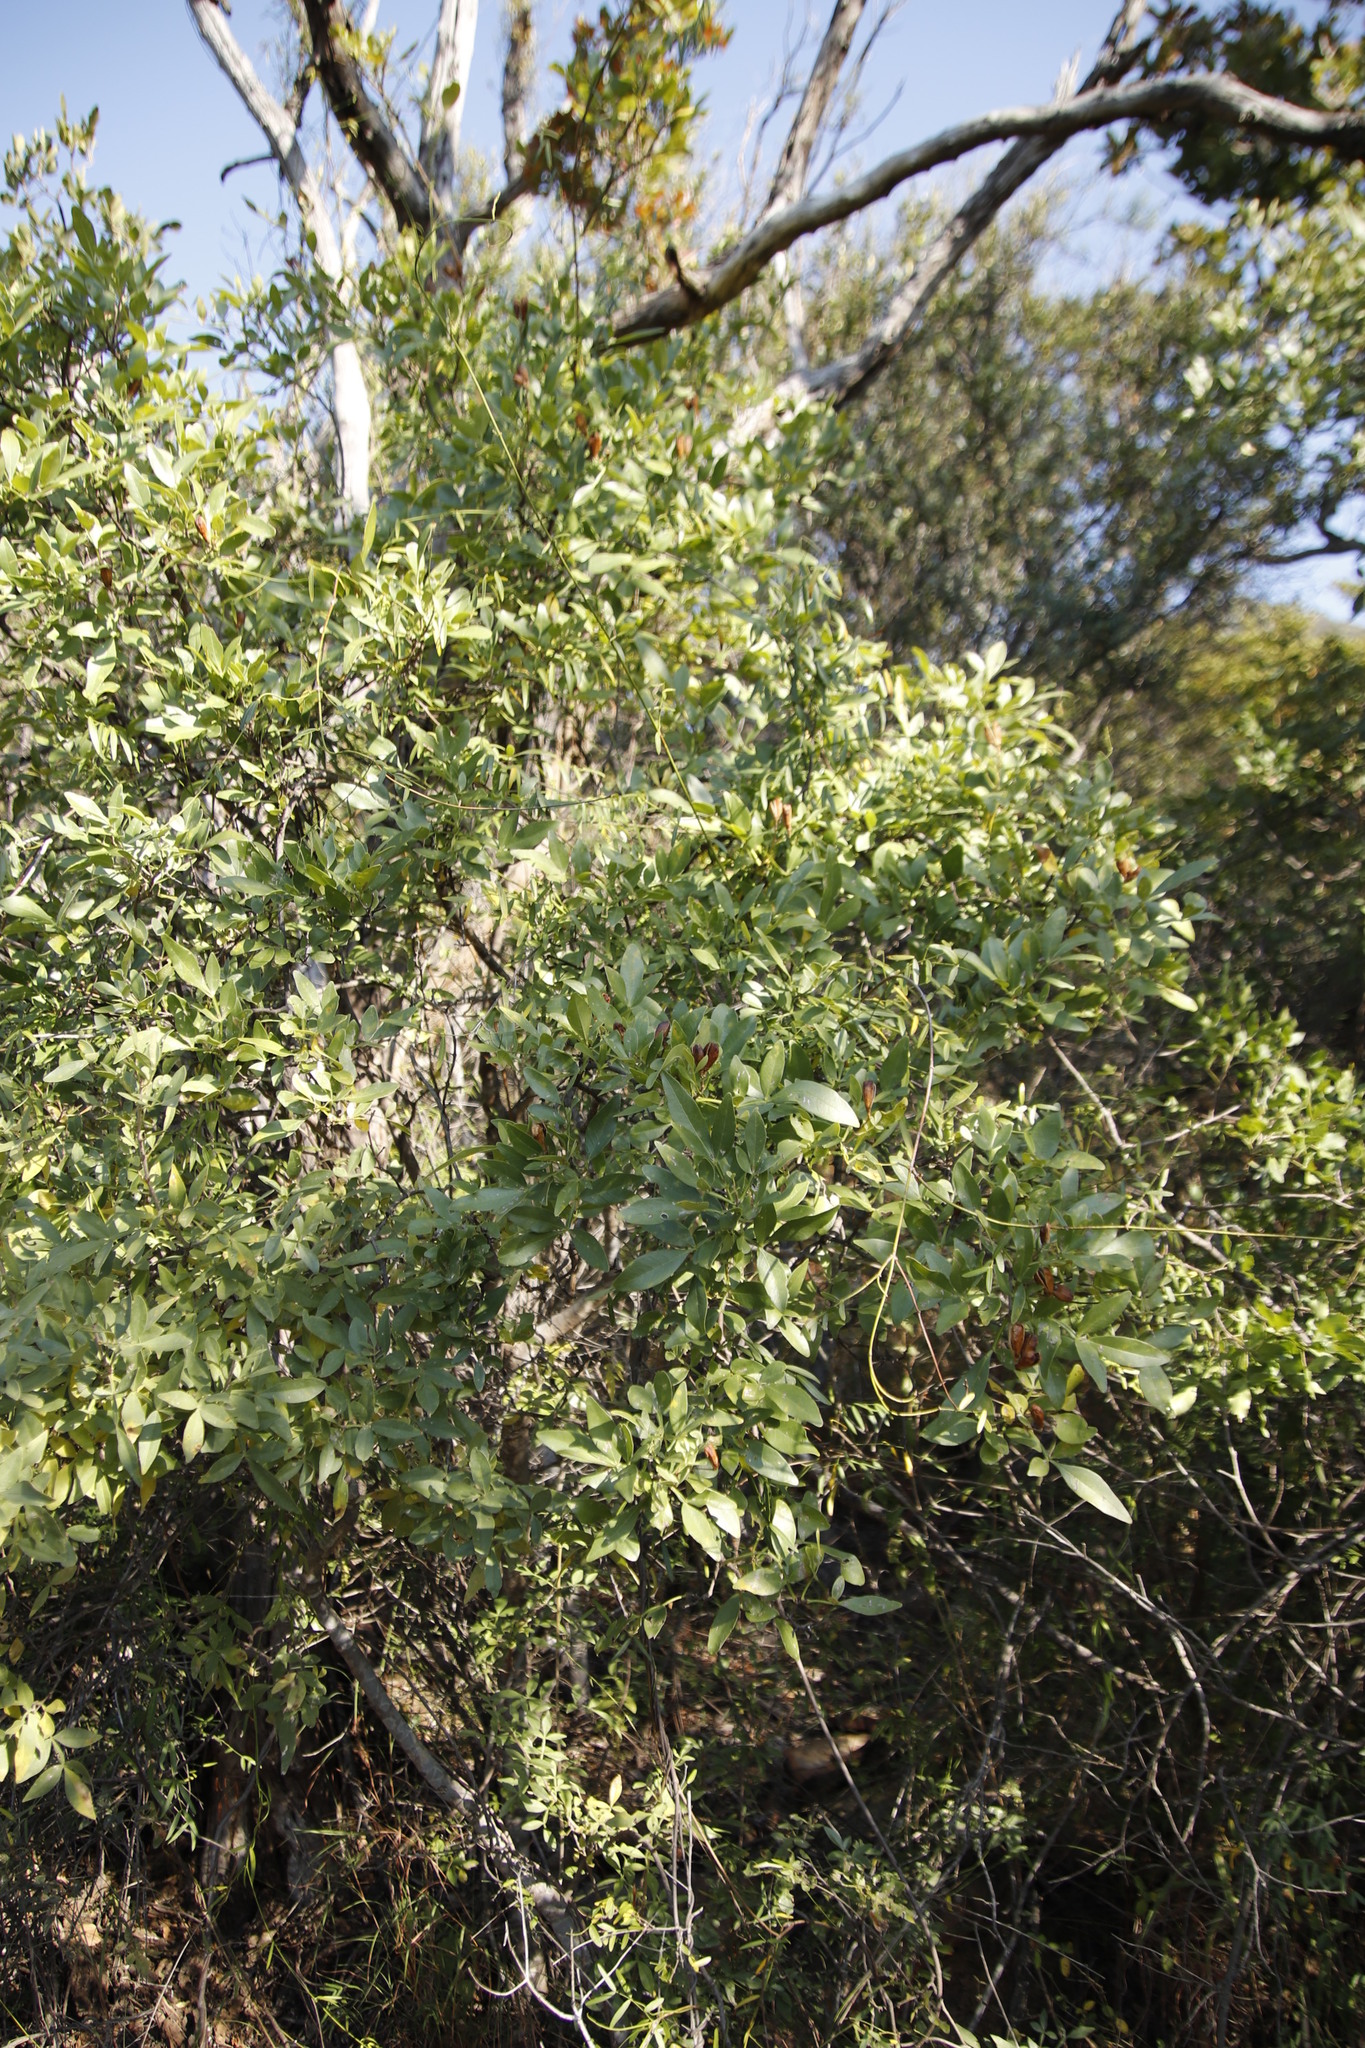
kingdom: Plantae
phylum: Tracheophyta
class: Magnoliopsida
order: Lamiales
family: Oleaceae
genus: Schrebera
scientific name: Schrebera alata
